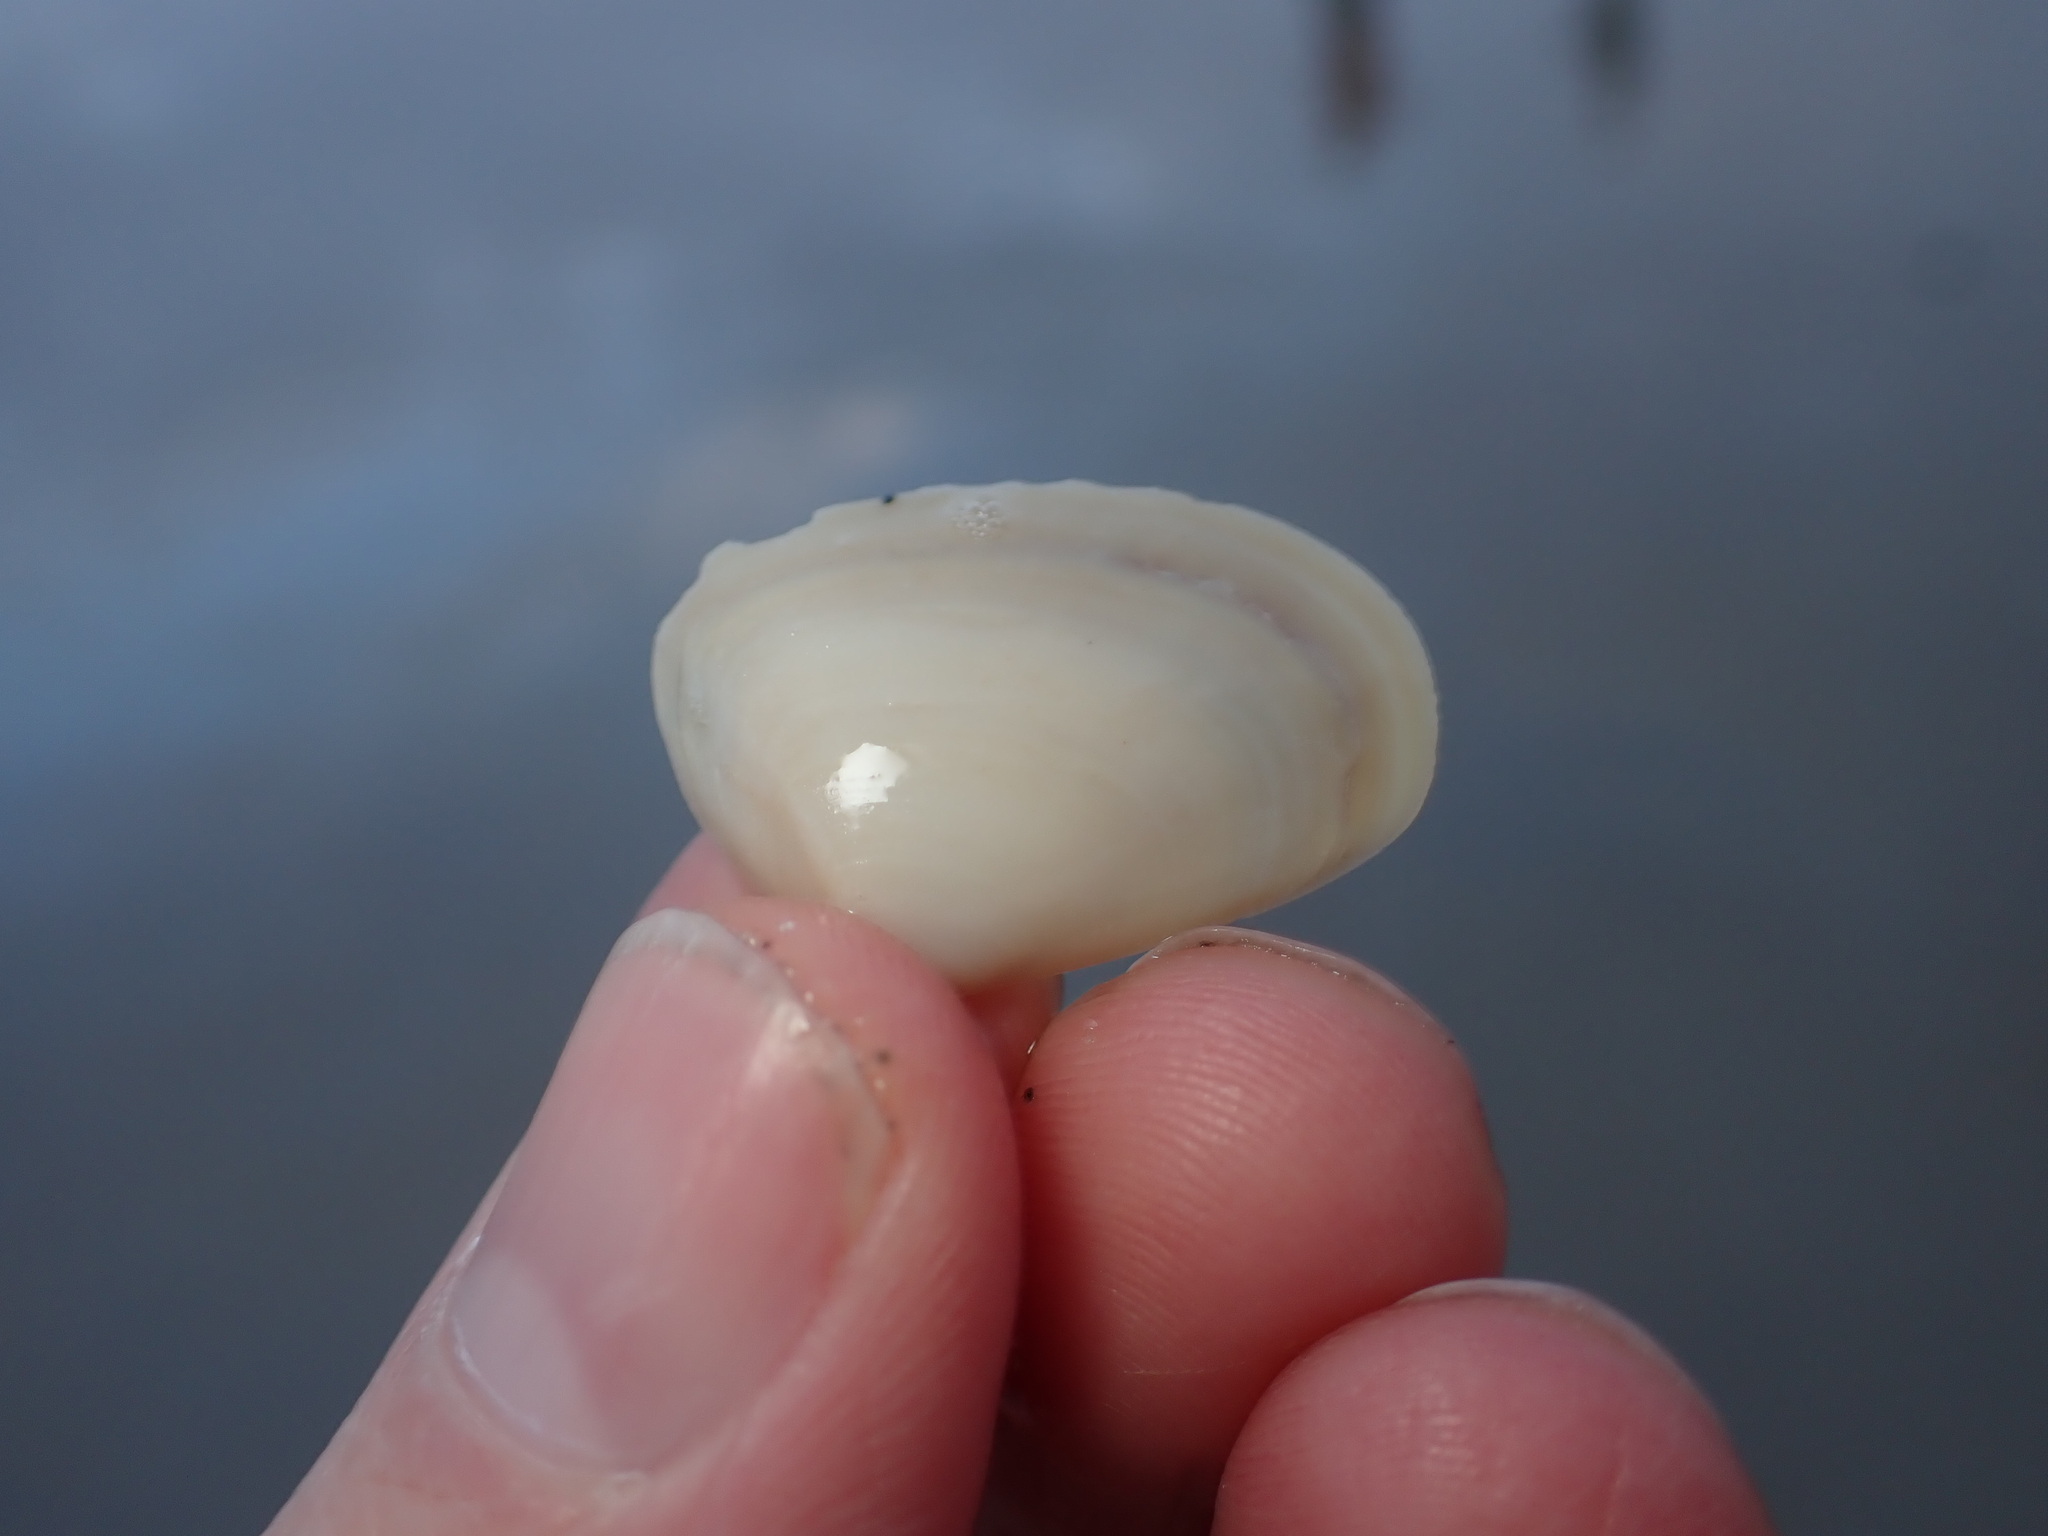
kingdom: Animalia
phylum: Mollusca
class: Bivalvia
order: Venerida
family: Mesodesmatidae
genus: Paphies
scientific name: Paphies donacina
